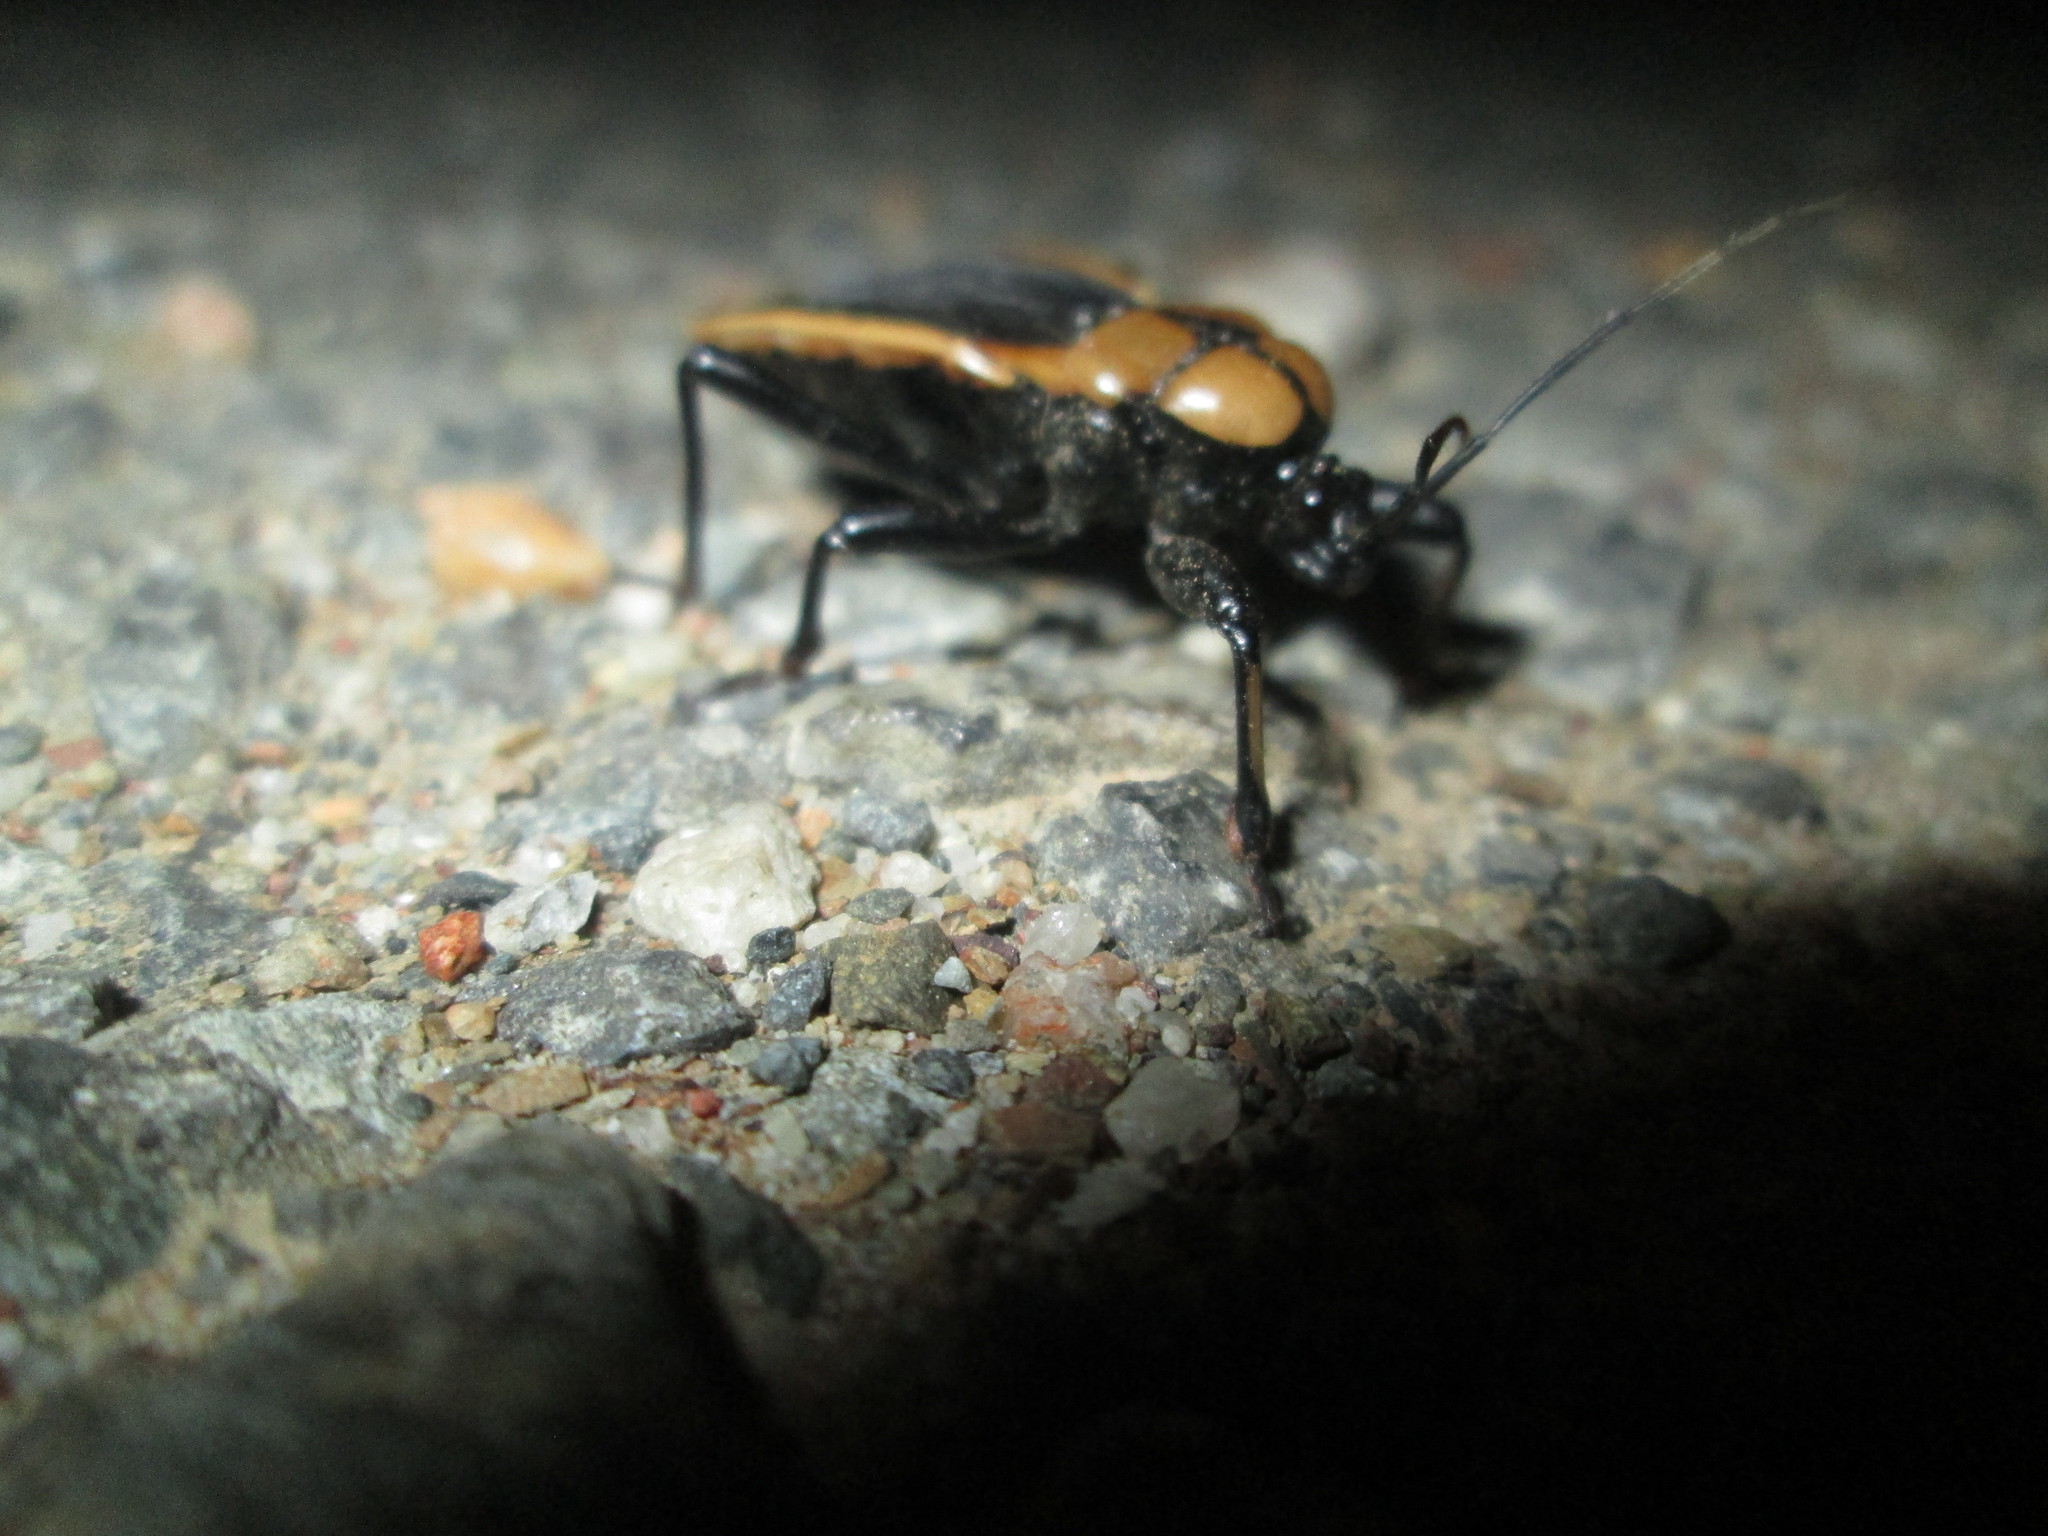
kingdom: Animalia
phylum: Arthropoda
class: Insecta
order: Hemiptera
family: Reduviidae
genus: Ectrichodia
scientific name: Ectrichodia crux
